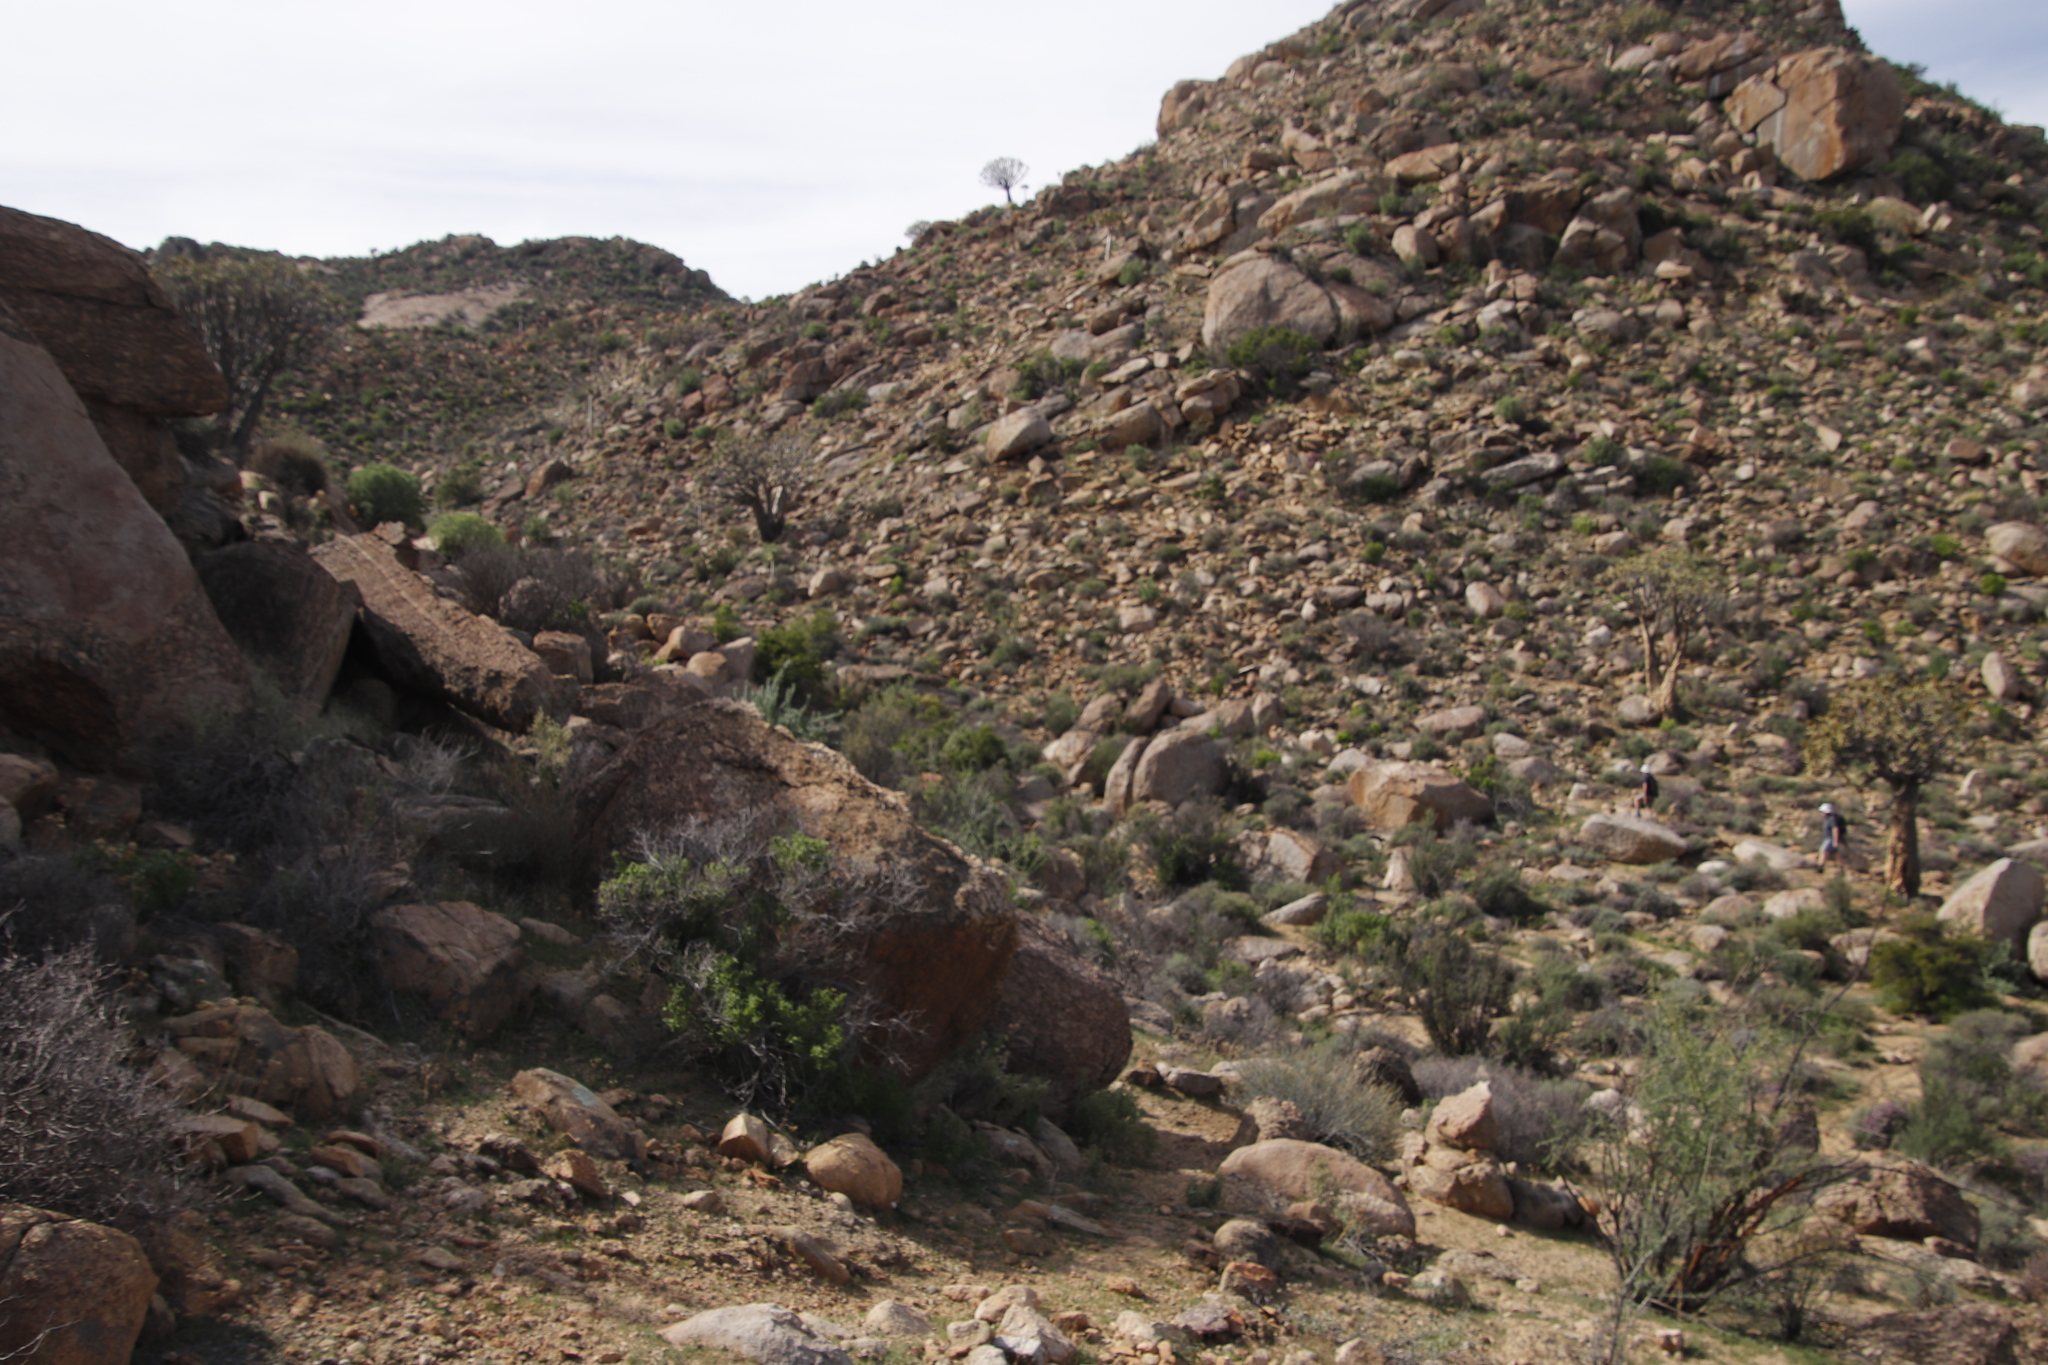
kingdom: Plantae
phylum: Tracheophyta
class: Liliopsida
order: Asparagales
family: Asphodelaceae
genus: Aloidendron
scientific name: Aloidendron dichotomum
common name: Quiver tree
